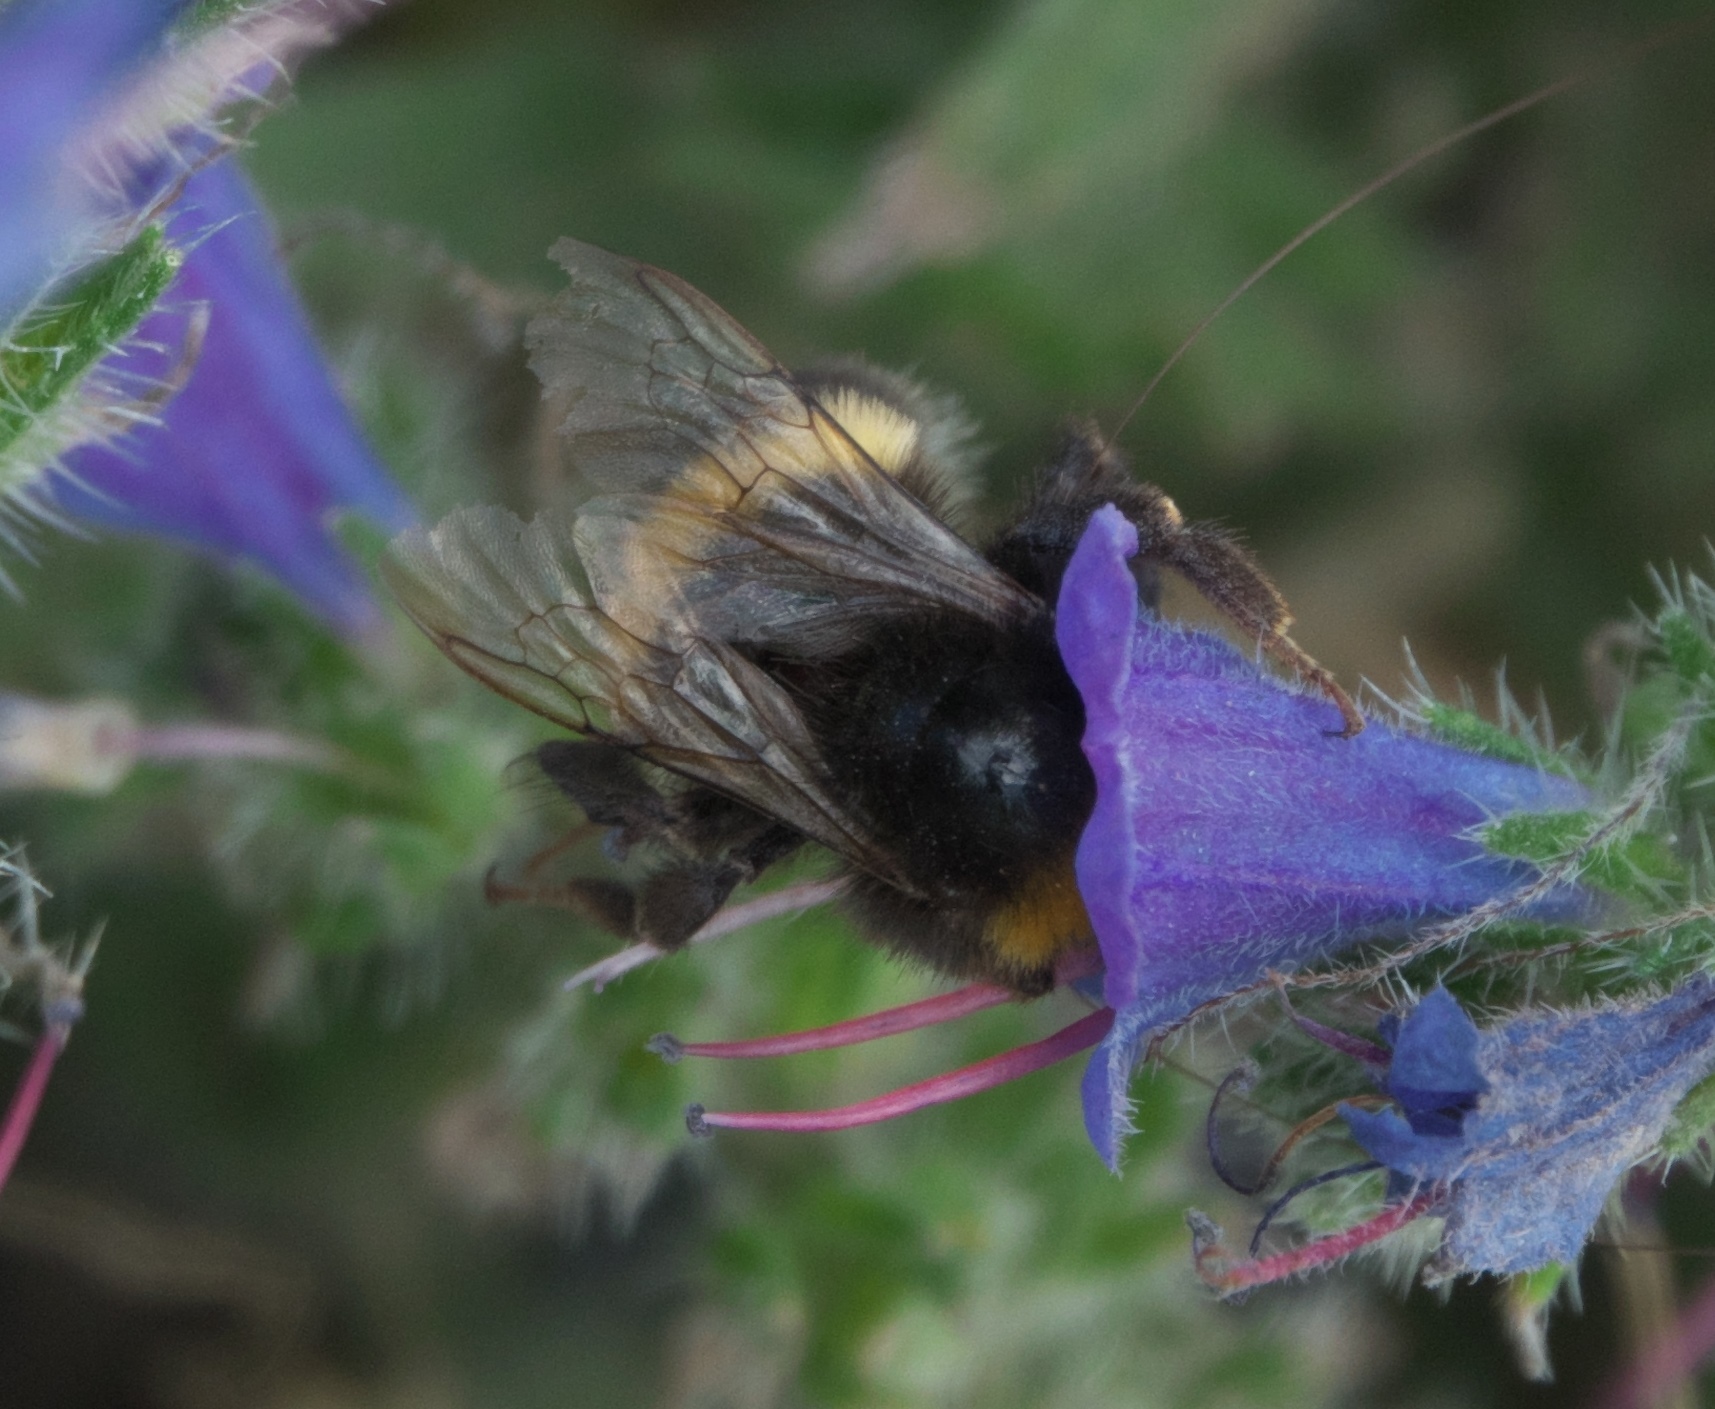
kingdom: Animalia
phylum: Arthropoda
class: Insecta
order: Hymenoptera
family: Apidae
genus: Bombus
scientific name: Bombus terrestris
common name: Buff-tailed bumblebee
